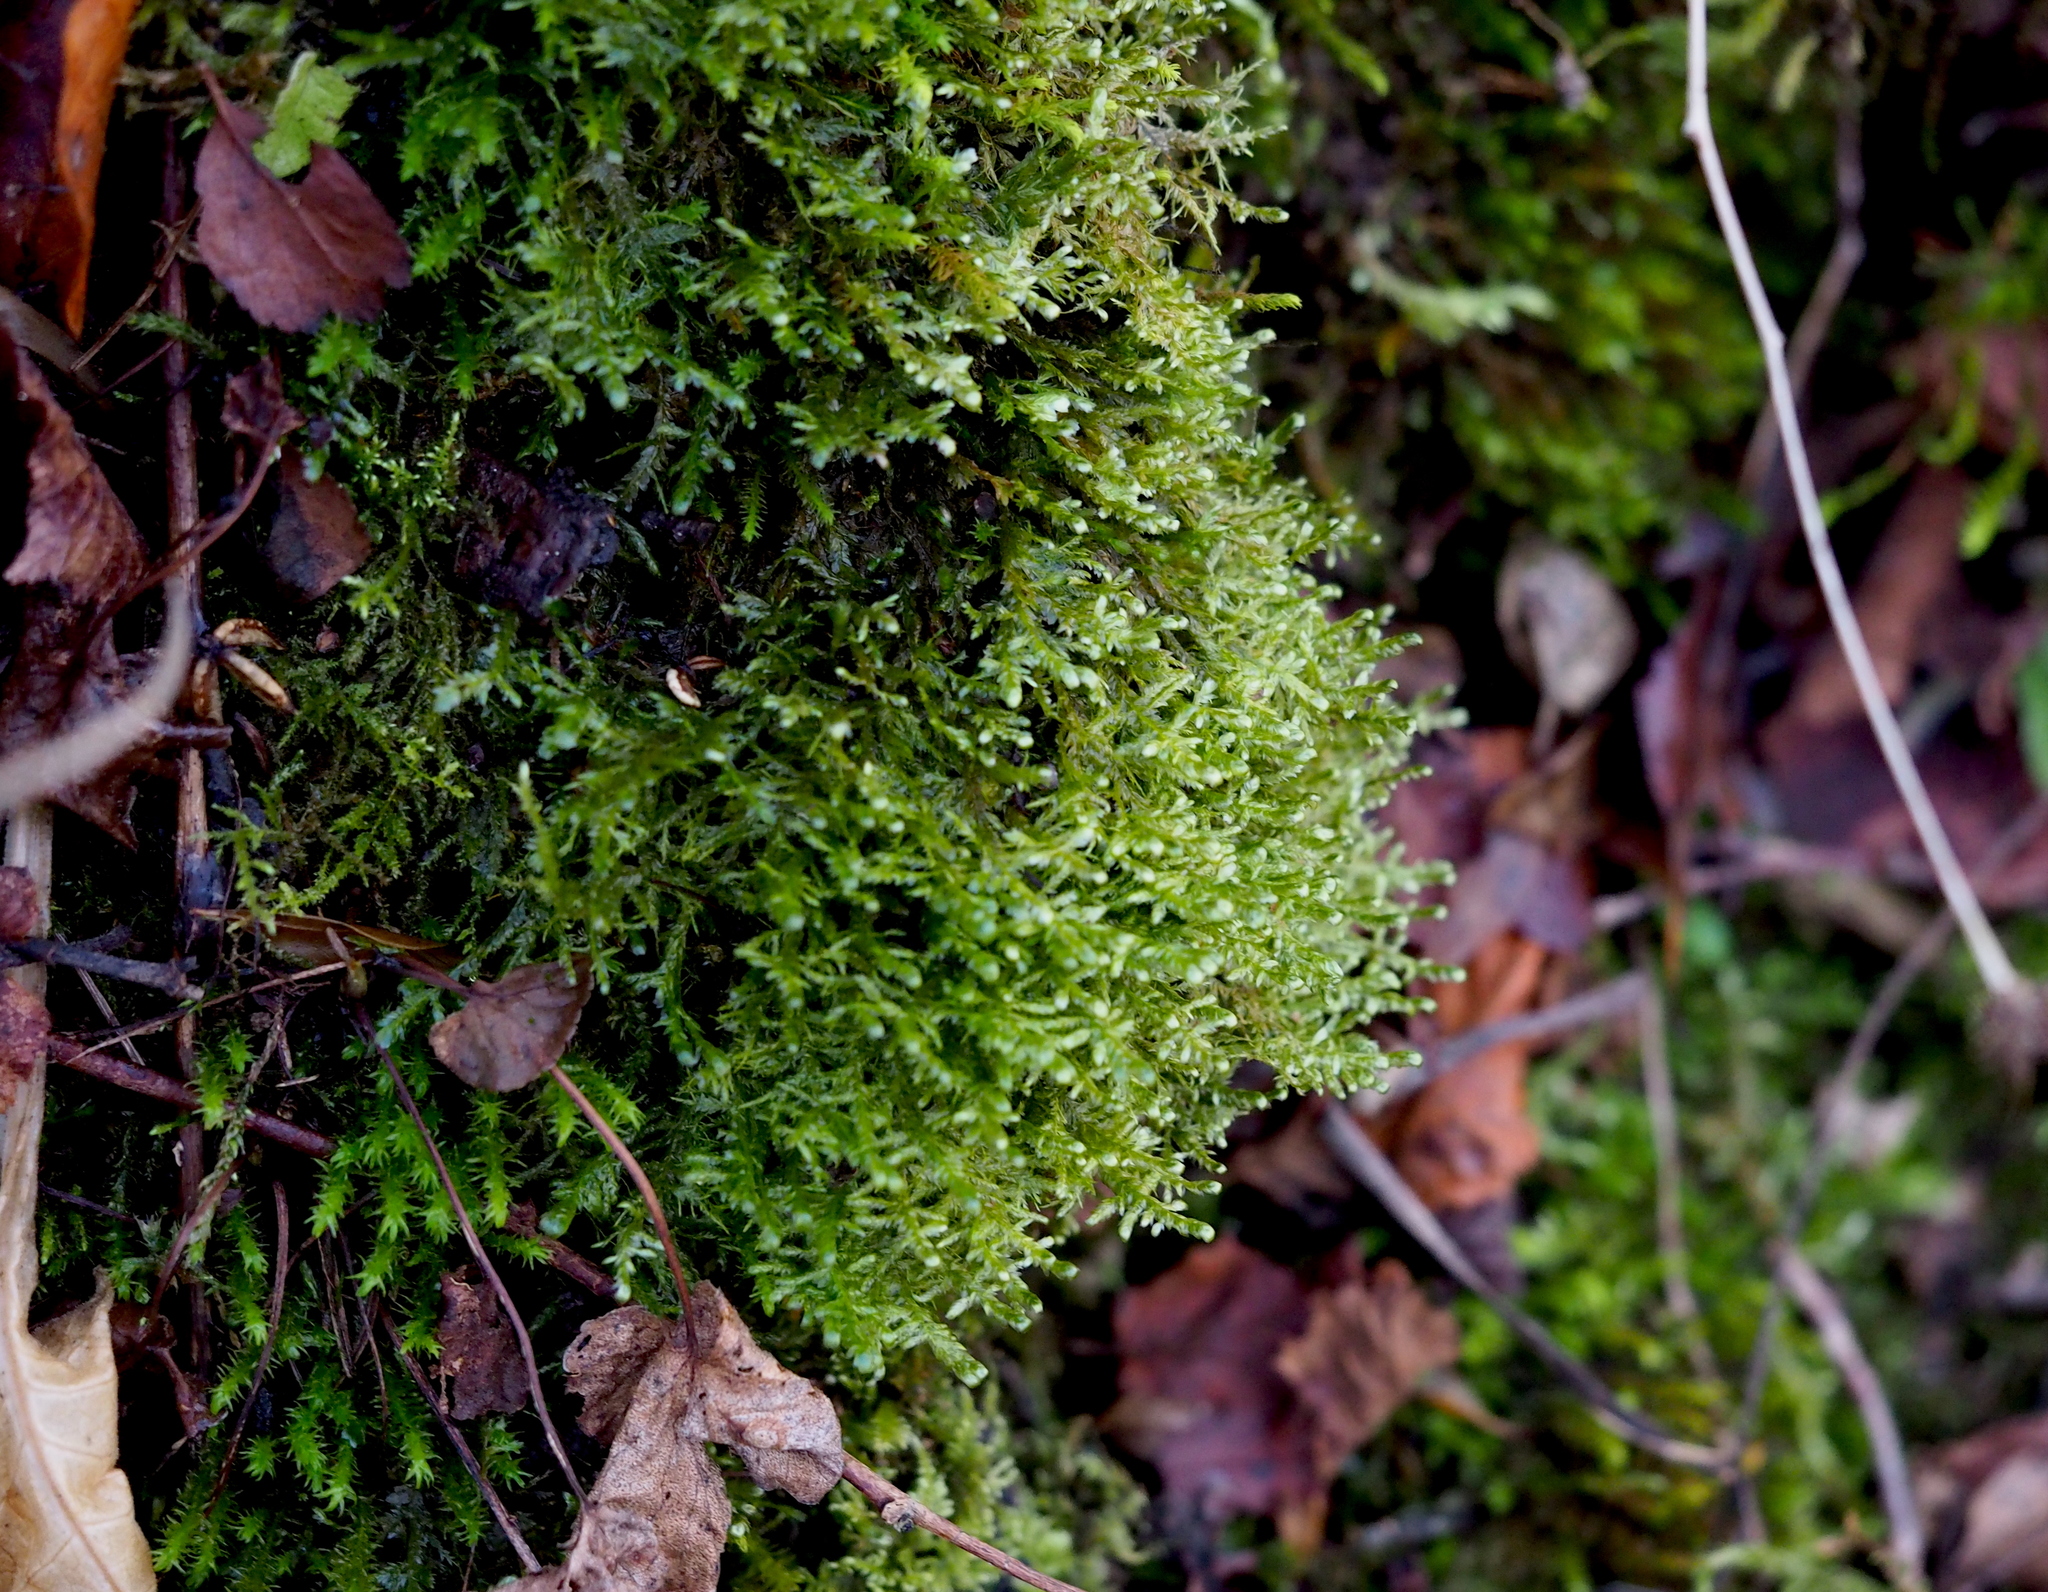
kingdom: Plantae
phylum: Bryophyta
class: Bryopsida
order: Hypnales
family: Neckeraceae
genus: Alleniella
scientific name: Alleniella complanata
